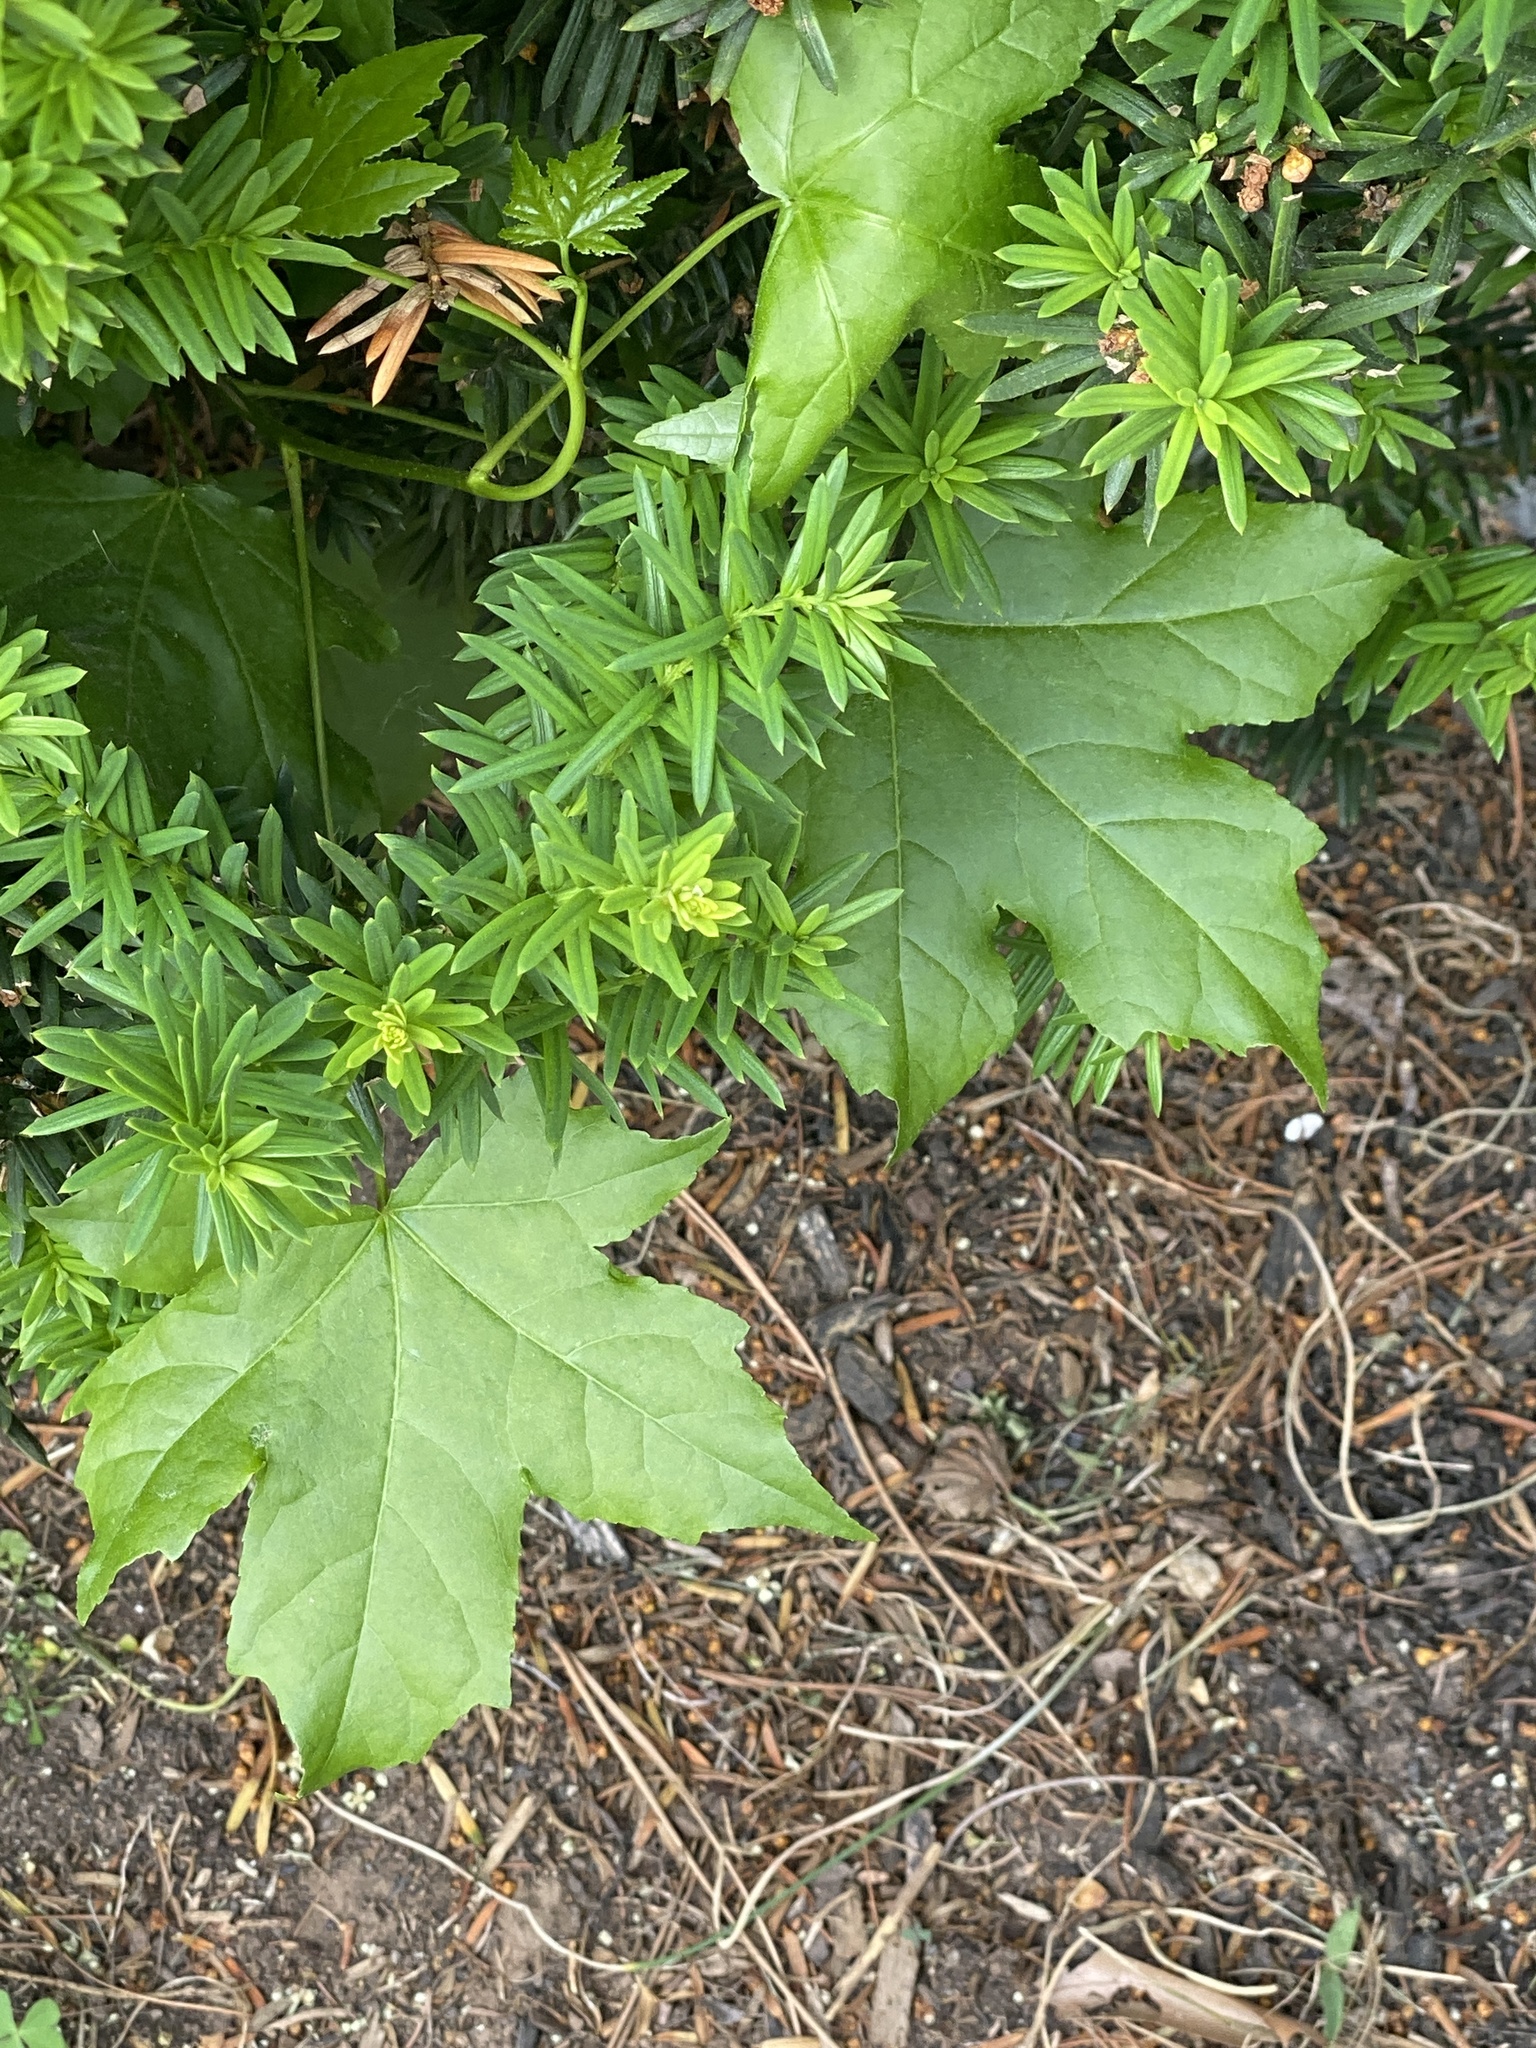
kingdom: Plantae
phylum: Tracheophyta
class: Magnoliopsida
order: Saxifragales
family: Altingiaceae
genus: Liquidambar
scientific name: Liquidambar styraciflua
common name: Sweet gum
